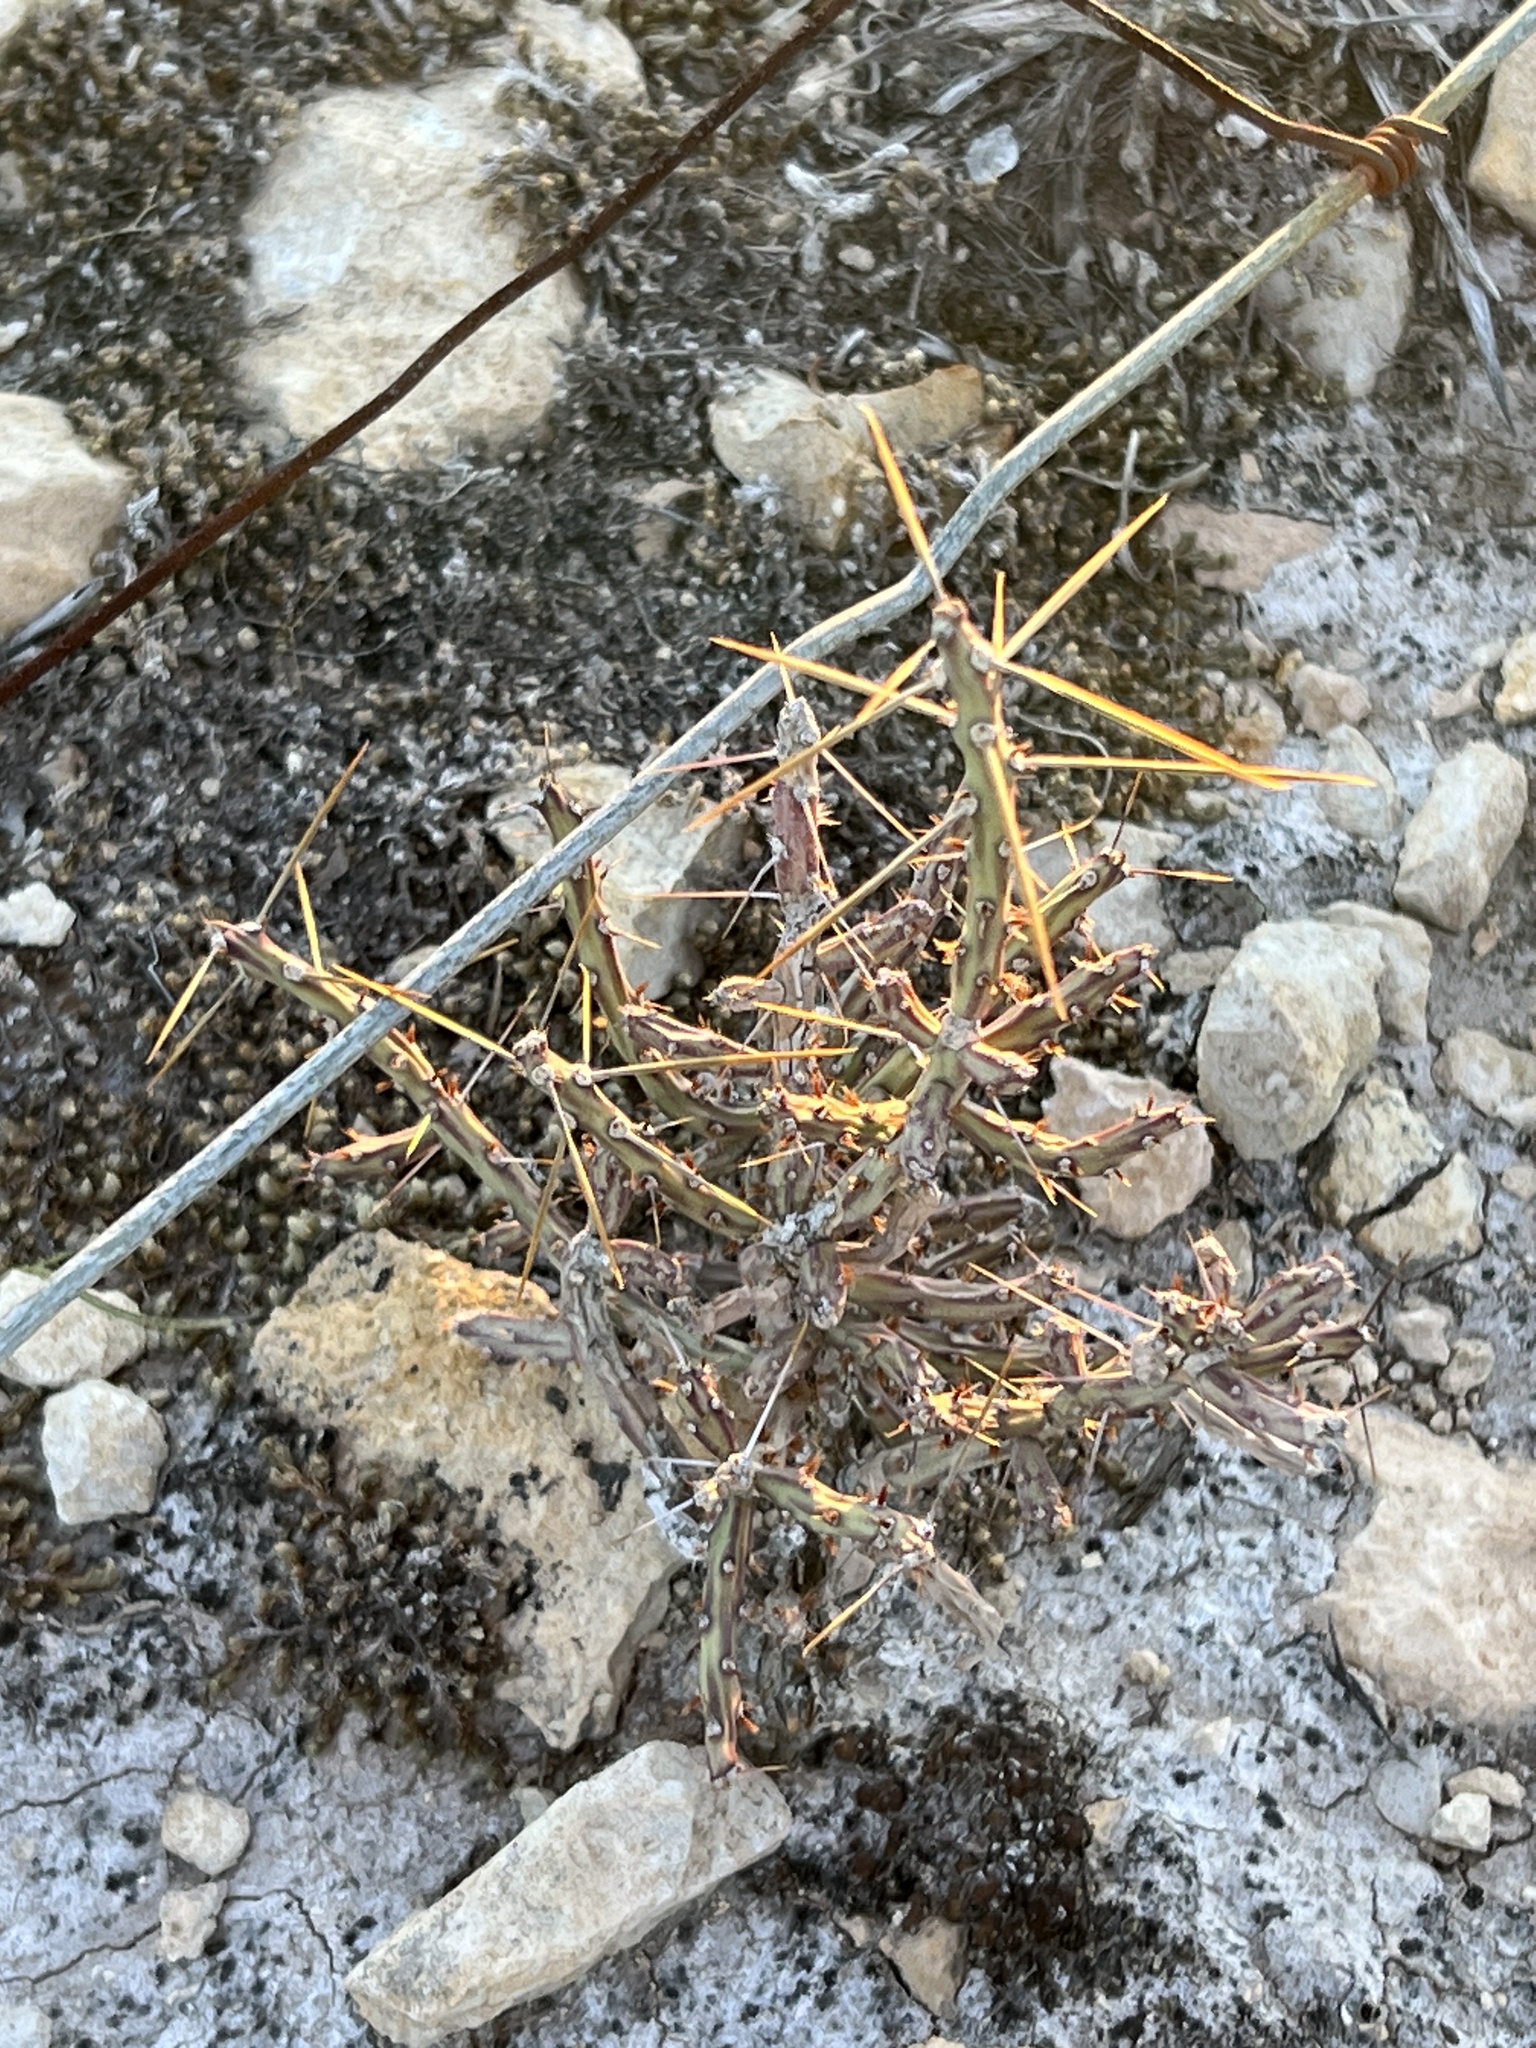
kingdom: Plantae
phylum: Tracheophyta
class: Magnoliopsida
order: Caryophyllales
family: Cactaceae
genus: Cylindropuntia
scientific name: Cylindropuntia leptocaulis
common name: Christmas cactus
